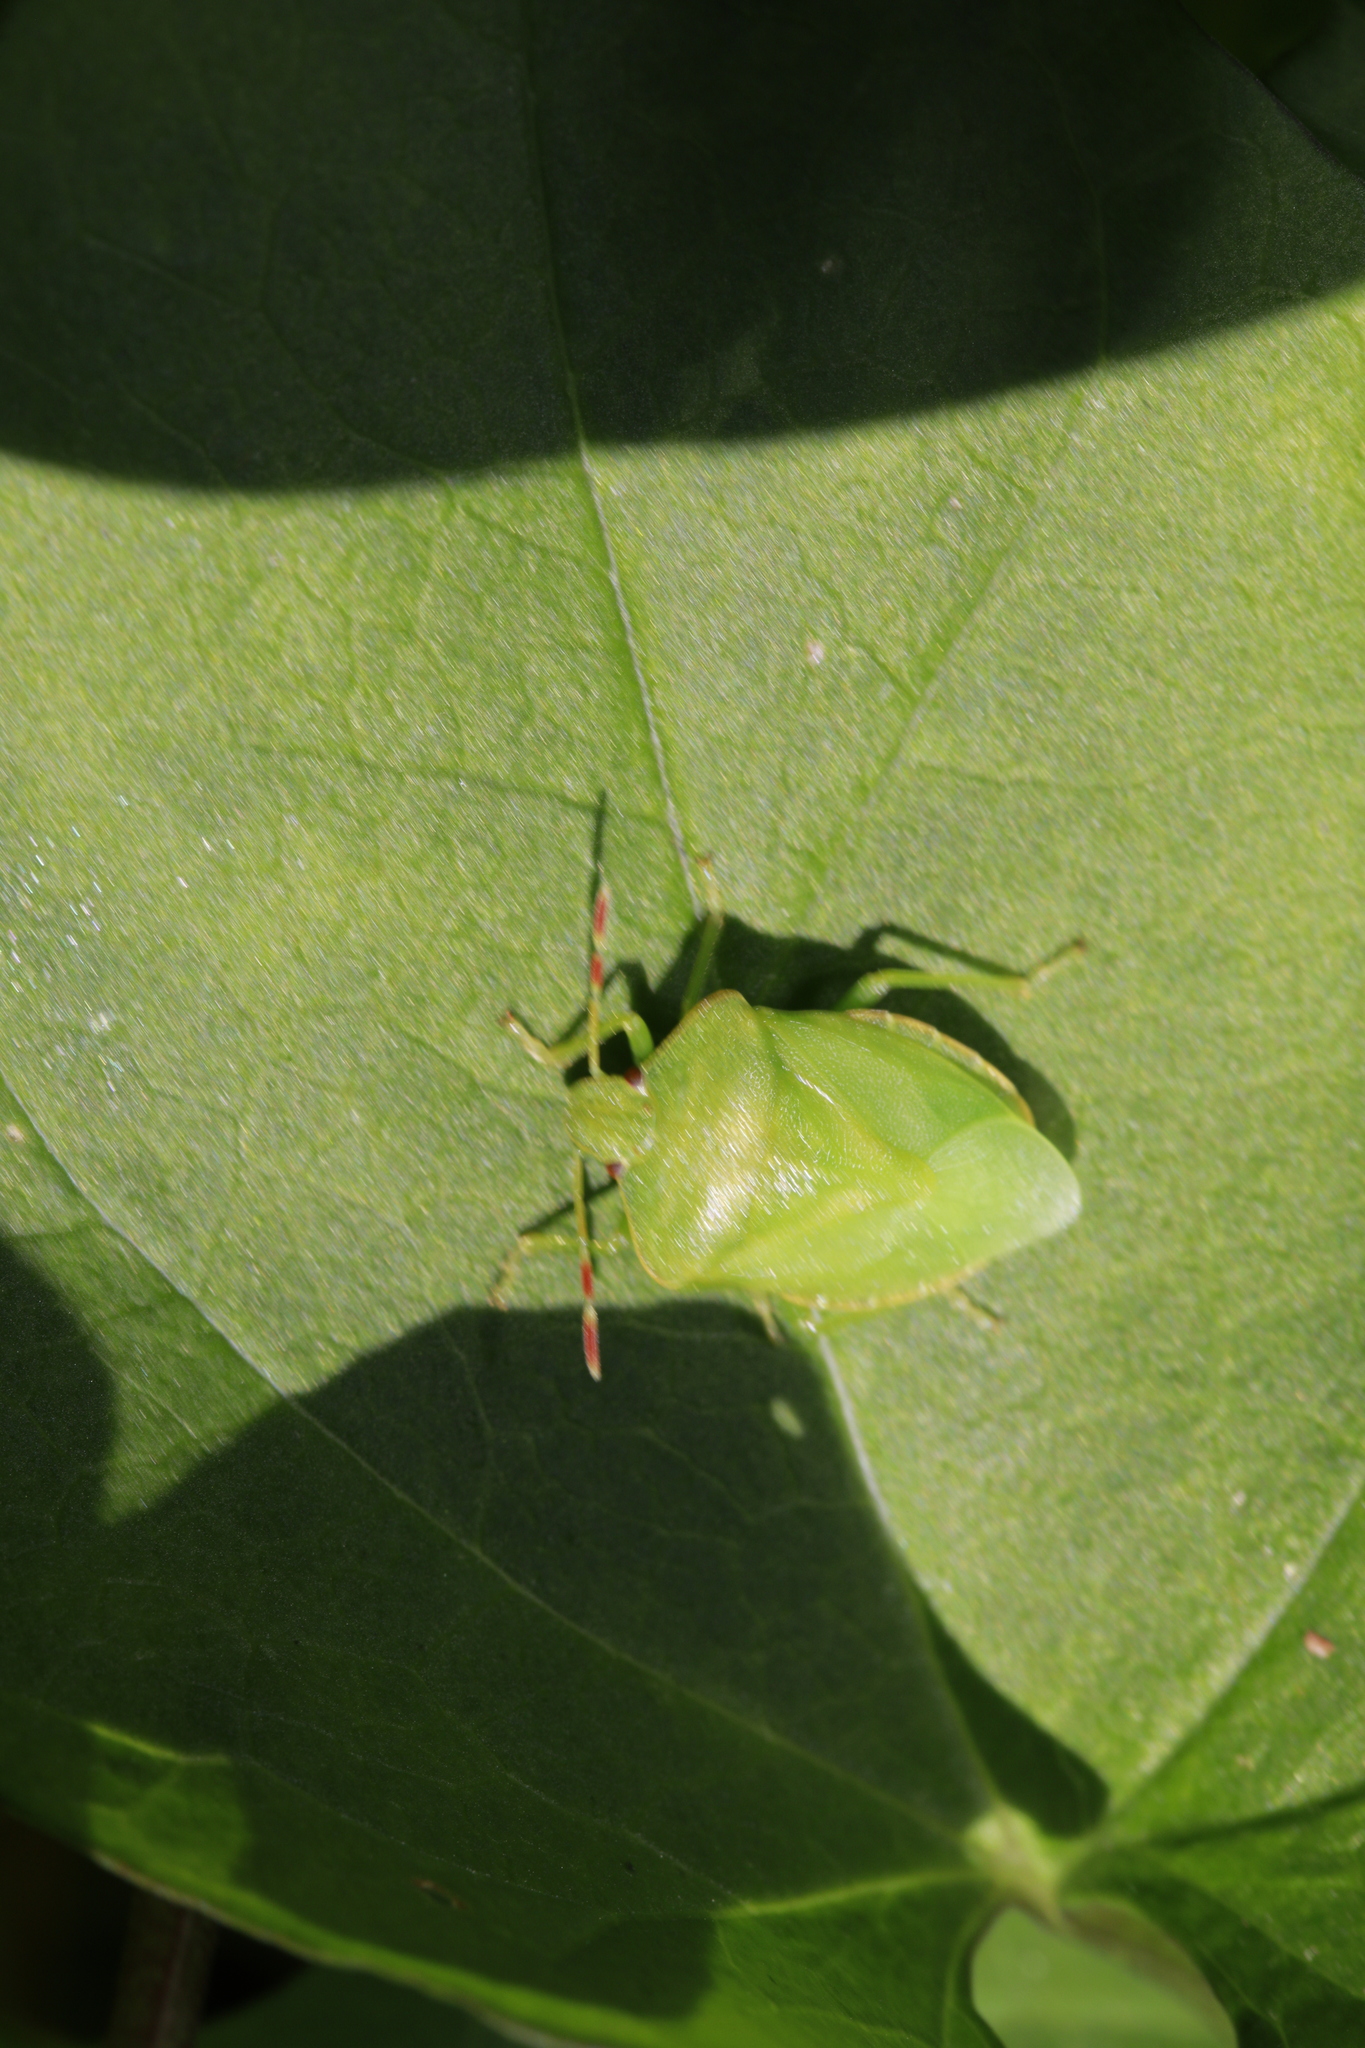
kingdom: Animalia
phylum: Arthropoda
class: Insecta
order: Hemiptera
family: Pentatomidae
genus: Palomena
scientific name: Palomena prasina
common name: Green shieldbug
